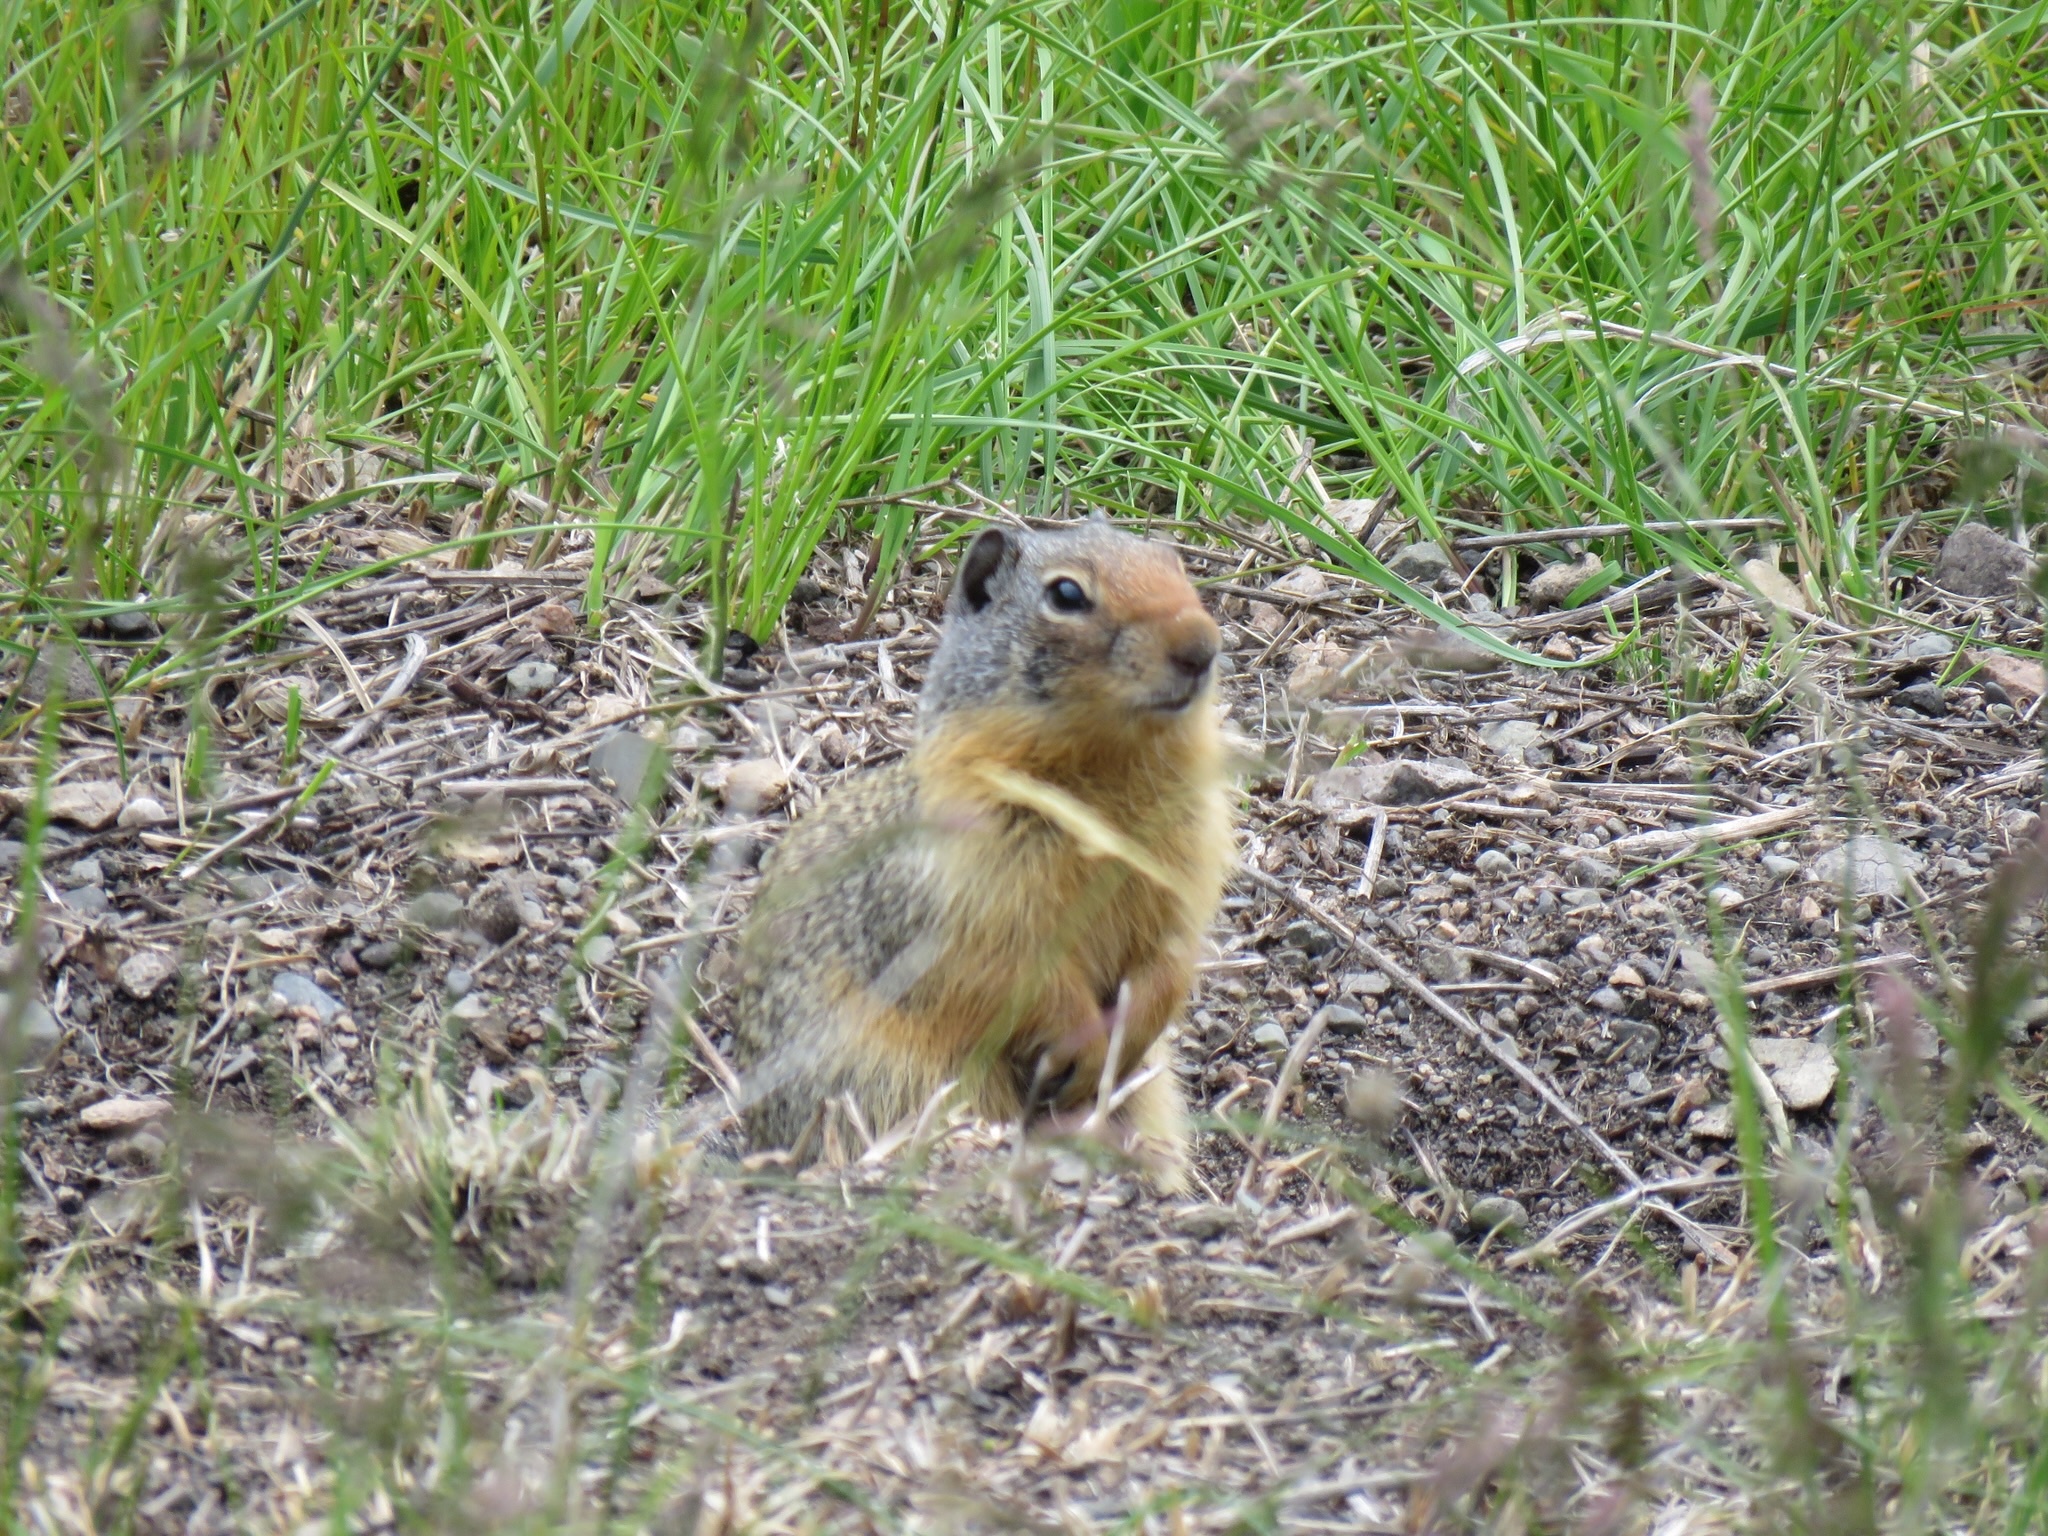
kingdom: Animalia
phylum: Chordata
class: Mammalia
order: Rodentia
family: Sciuridae
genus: Urocitellus
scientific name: Urocitellus columbianus
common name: Columbian ground squirrel
